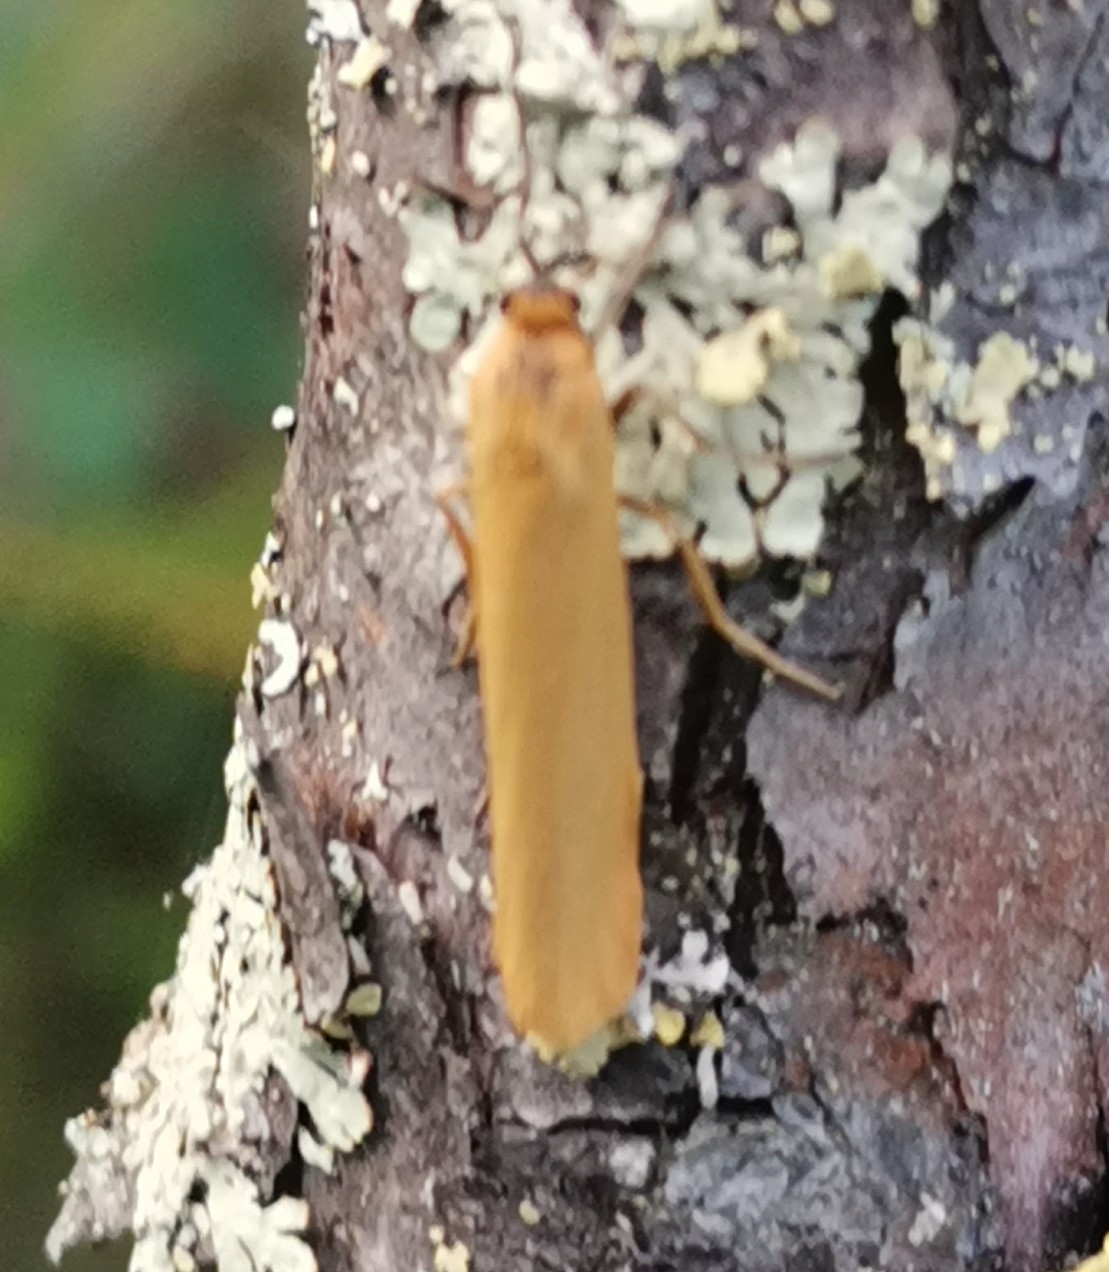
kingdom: Animalia
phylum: Arthropoda
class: Insecta
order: Lepidoptera
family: Erebidae
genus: Indalia
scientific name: Indalia lutarella
